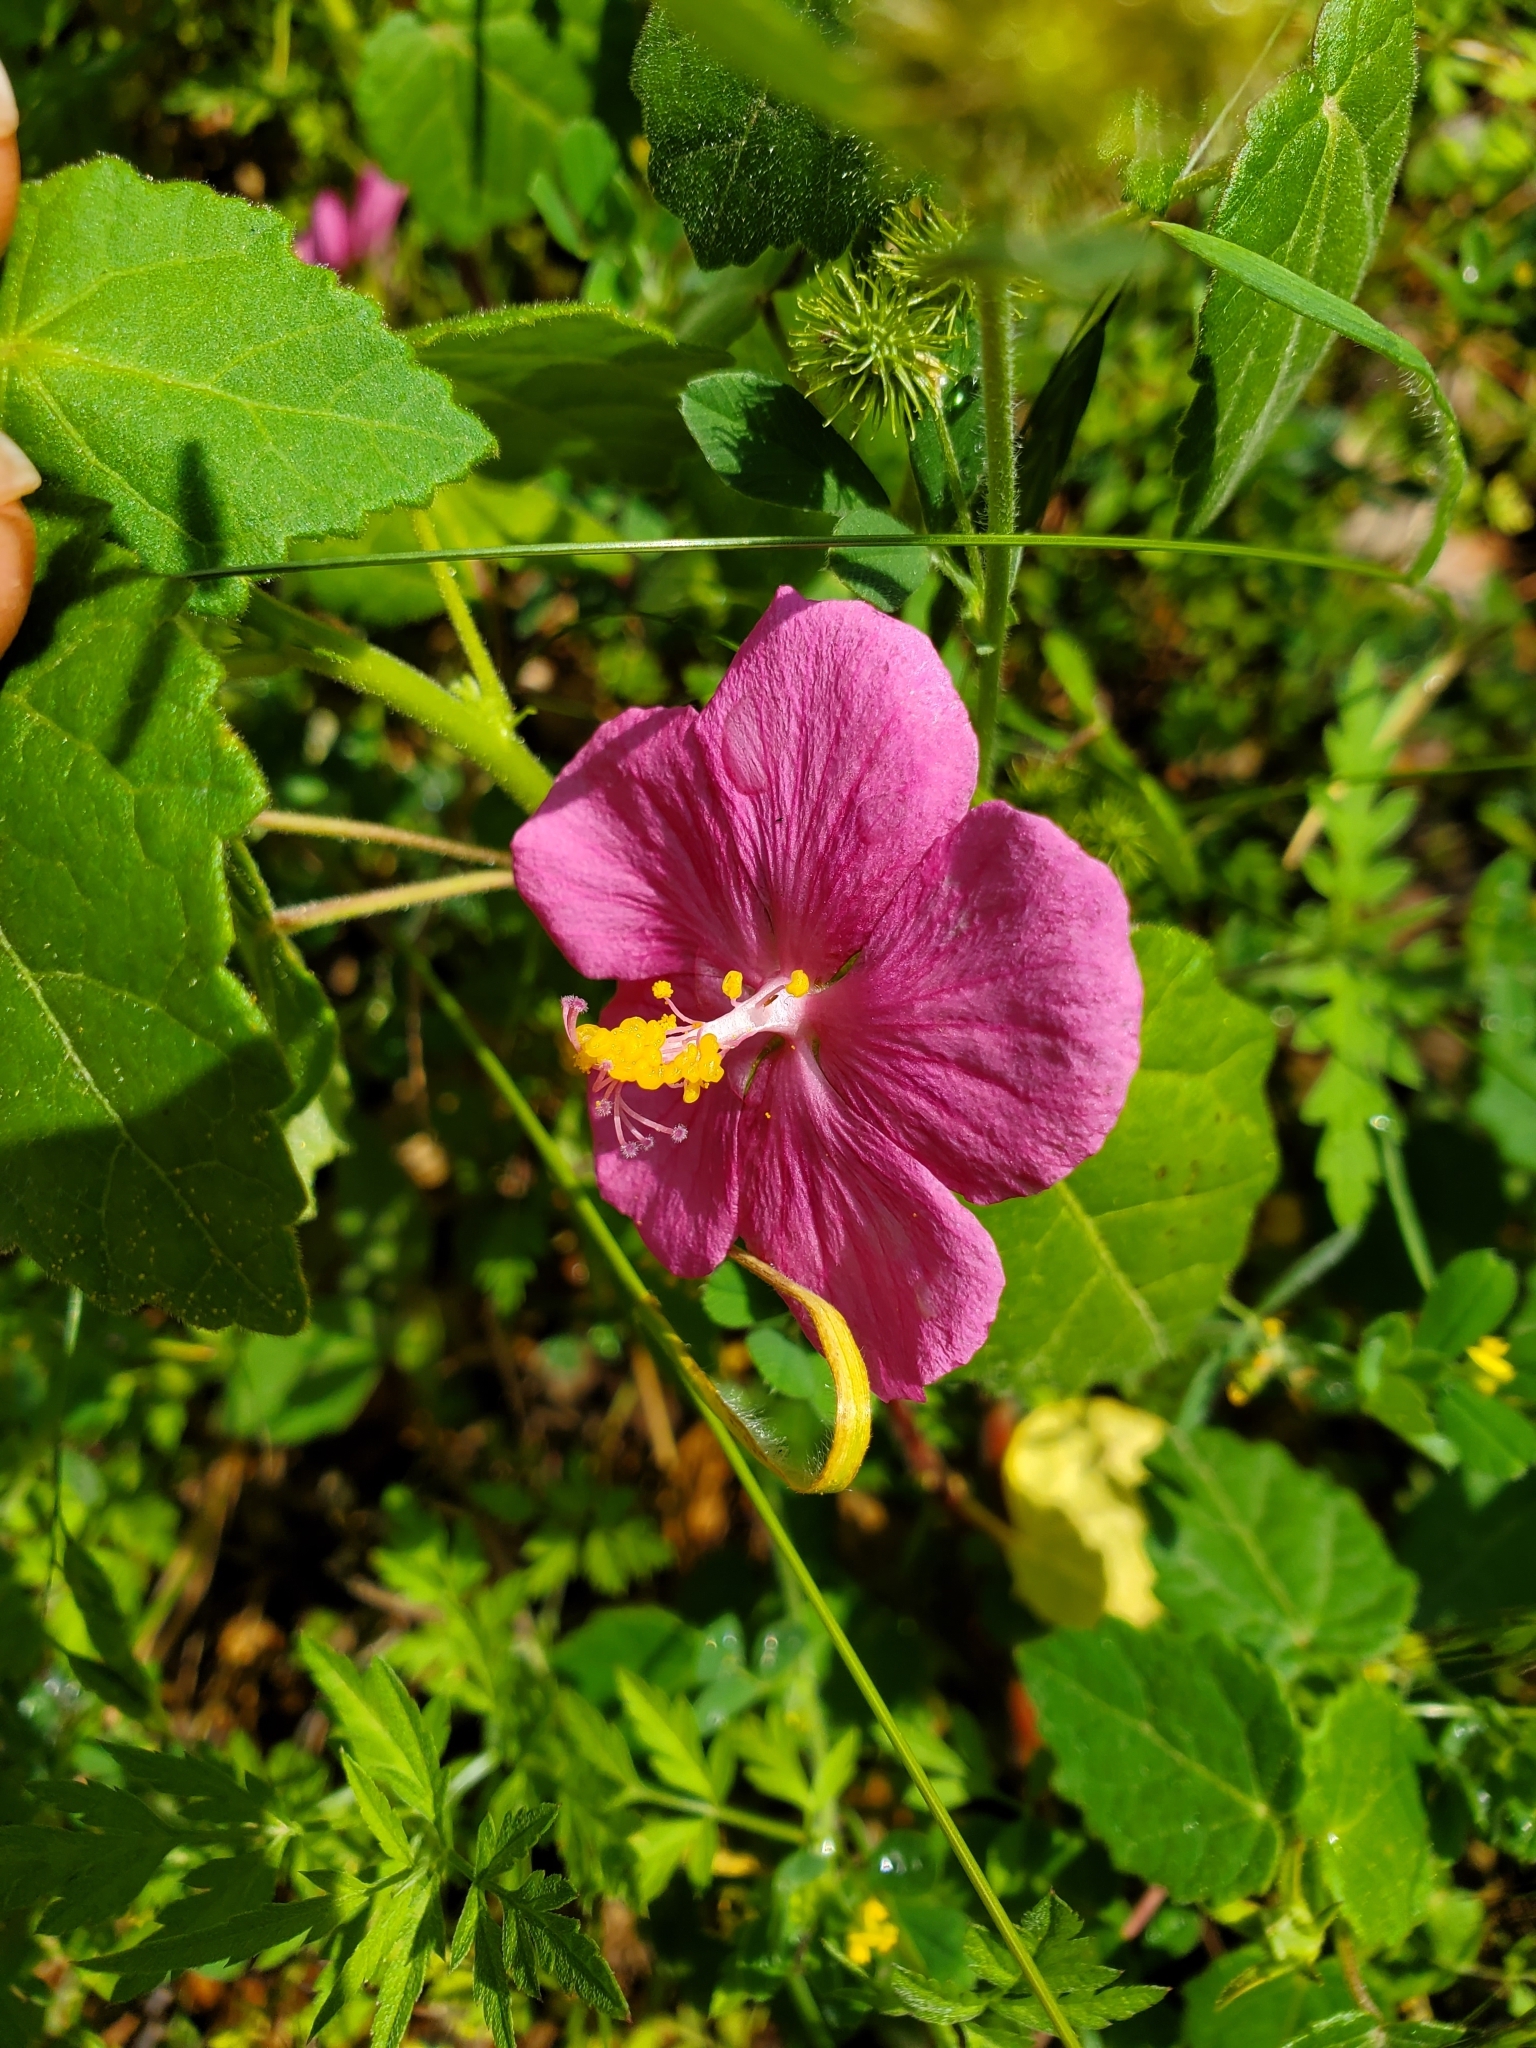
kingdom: Plantae
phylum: Tracheophyta
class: Magnoliopsida
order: Malvales
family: Malvaceae
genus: Pavonia
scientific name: Pavonia lasiopetala
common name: Texas swamp-mallow
